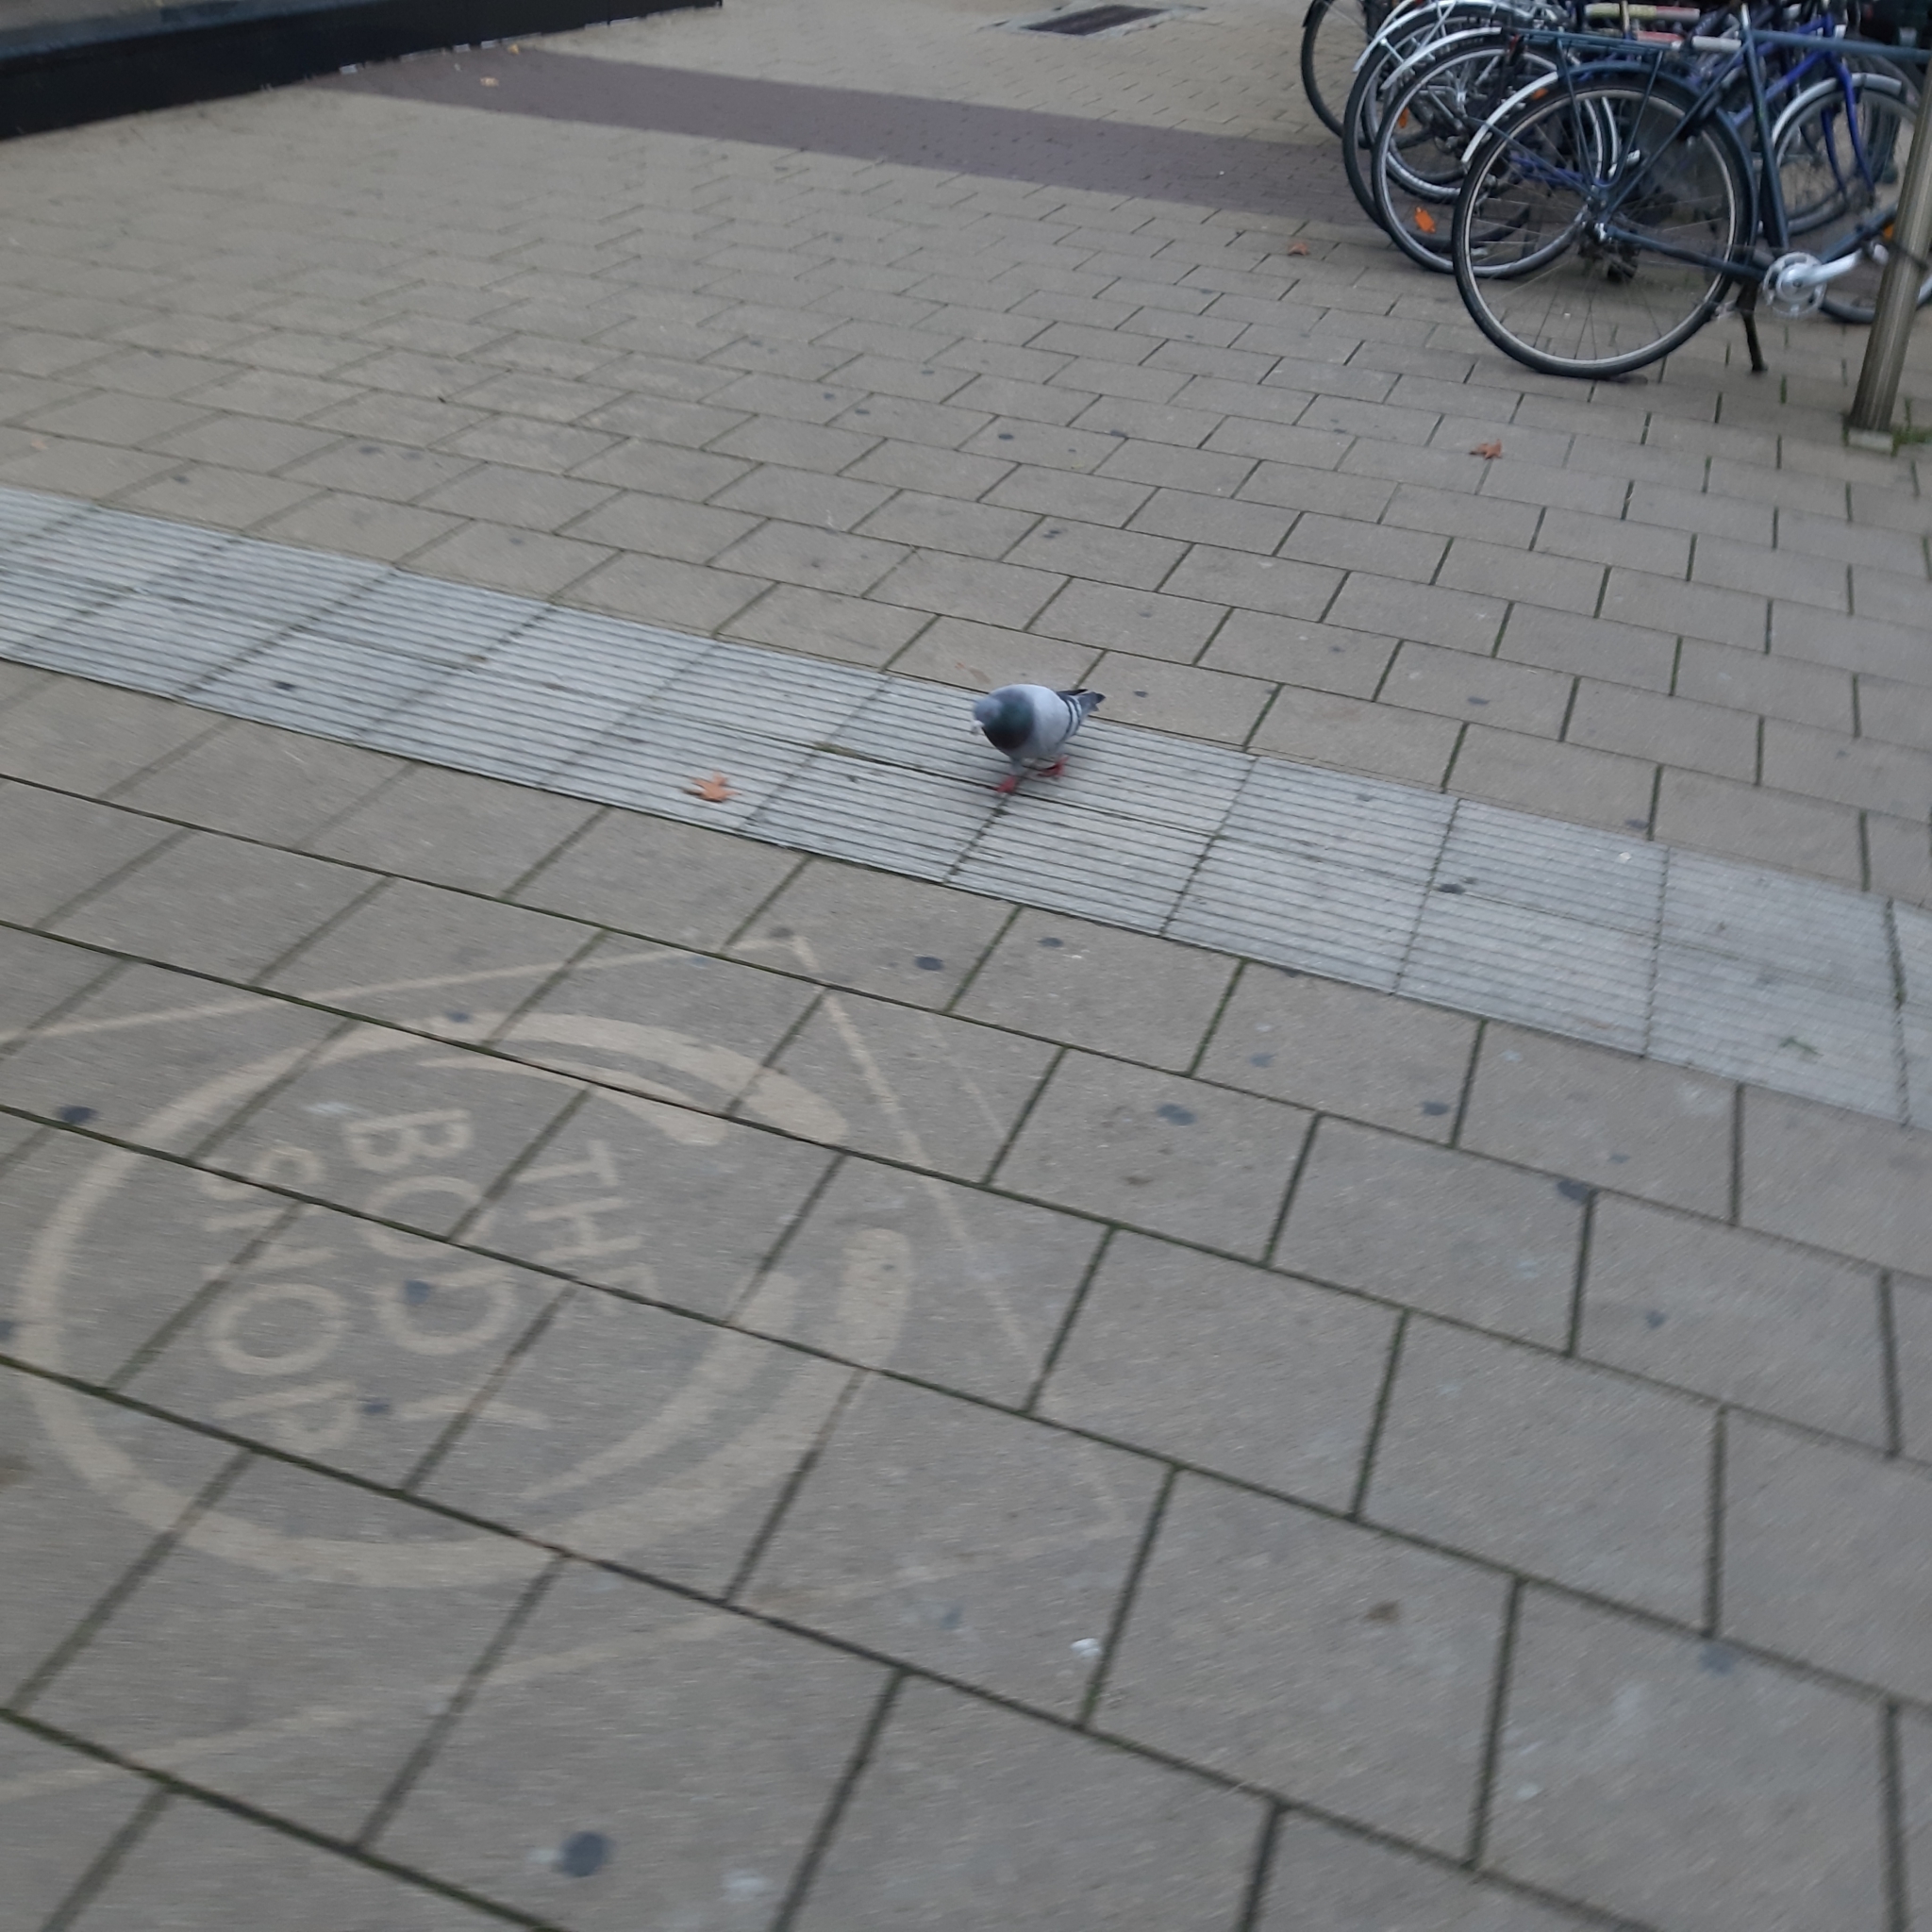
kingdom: Animalia
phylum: Chordata
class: Aves
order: Columbiformes
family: Columbidae
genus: Columba
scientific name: Columba livia
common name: Rock pigeon
